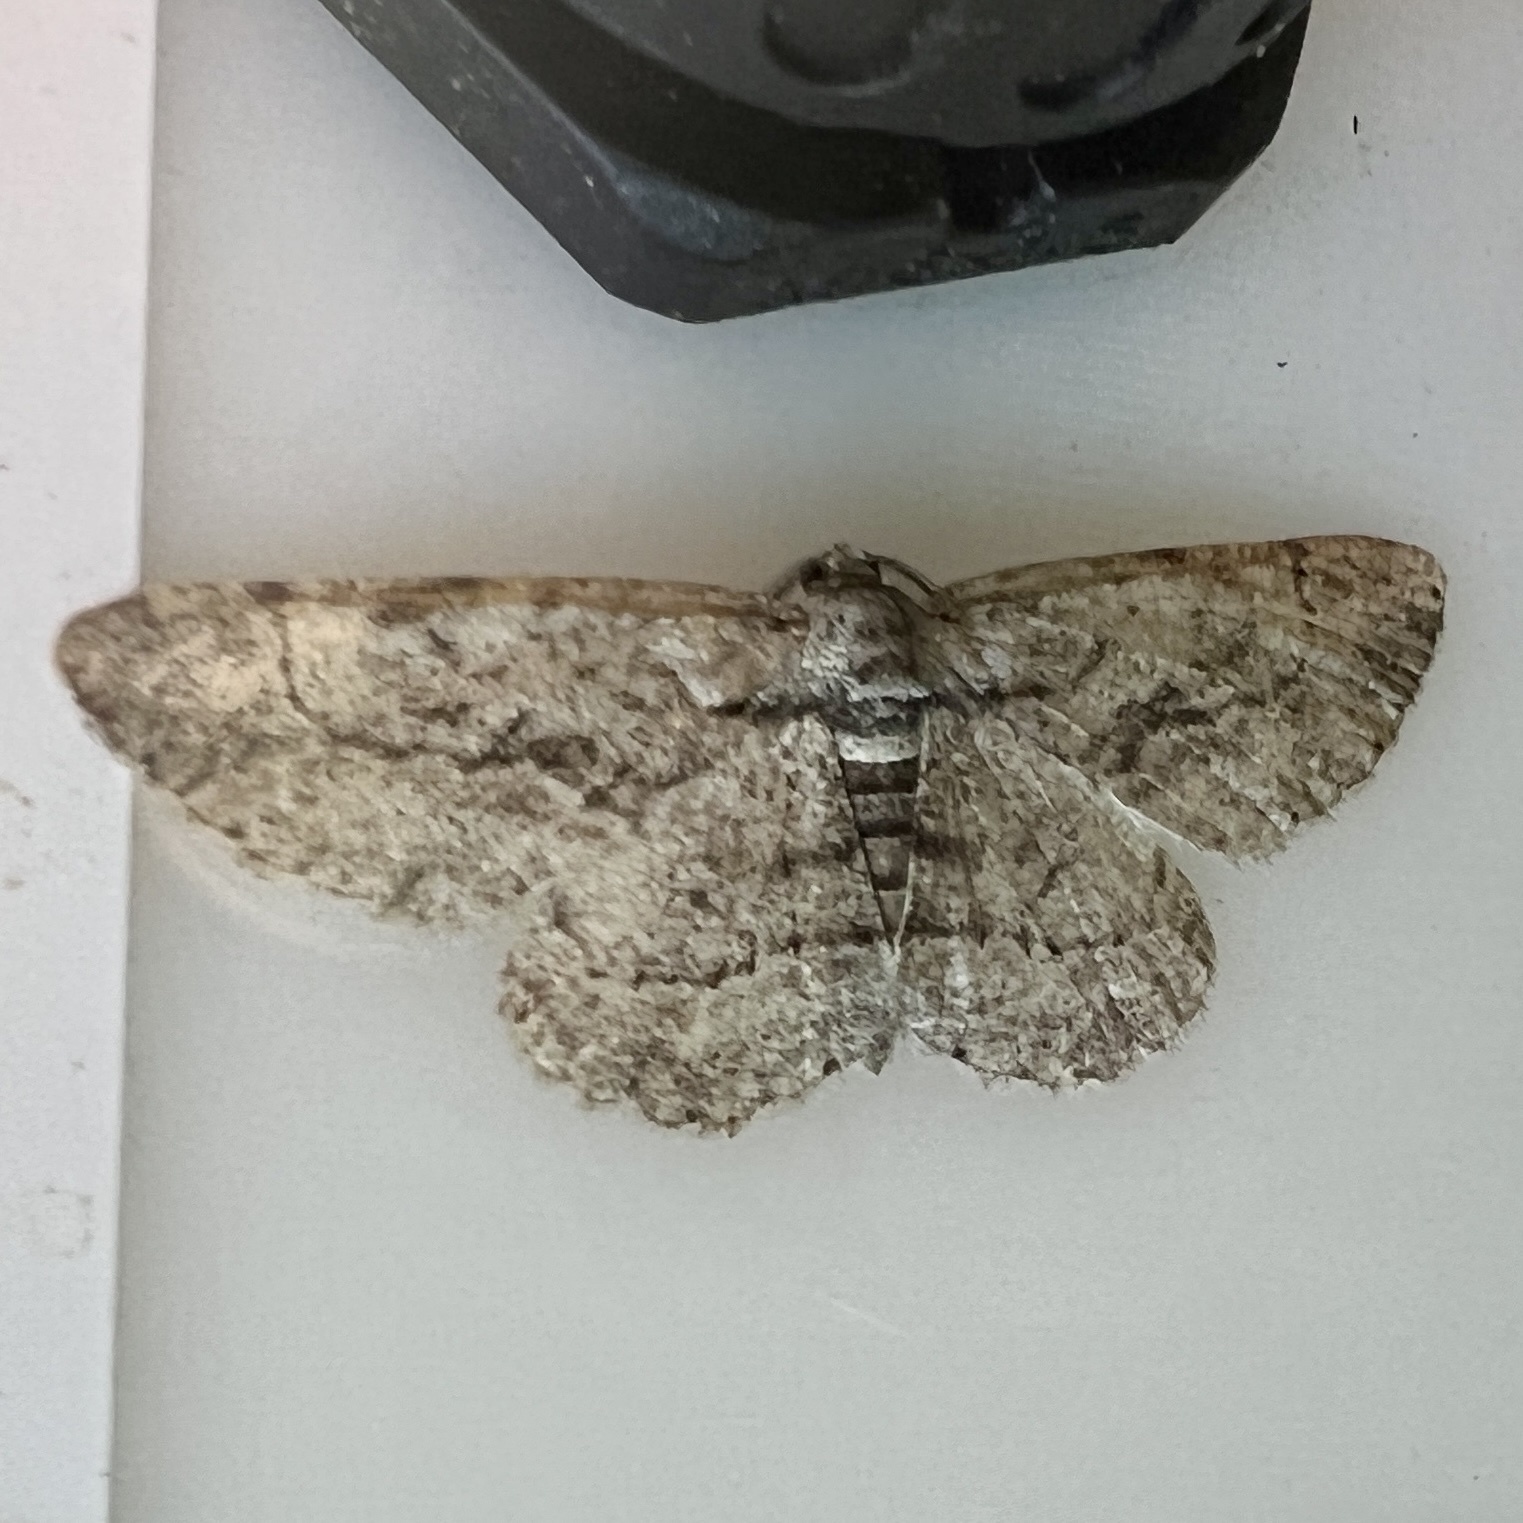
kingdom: Animalia
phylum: Arthropoda
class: Insecta
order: Lepidoptera
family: Geometridae
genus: Anavitrinella
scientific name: Anavitrinella pampinaria
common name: Common gray
